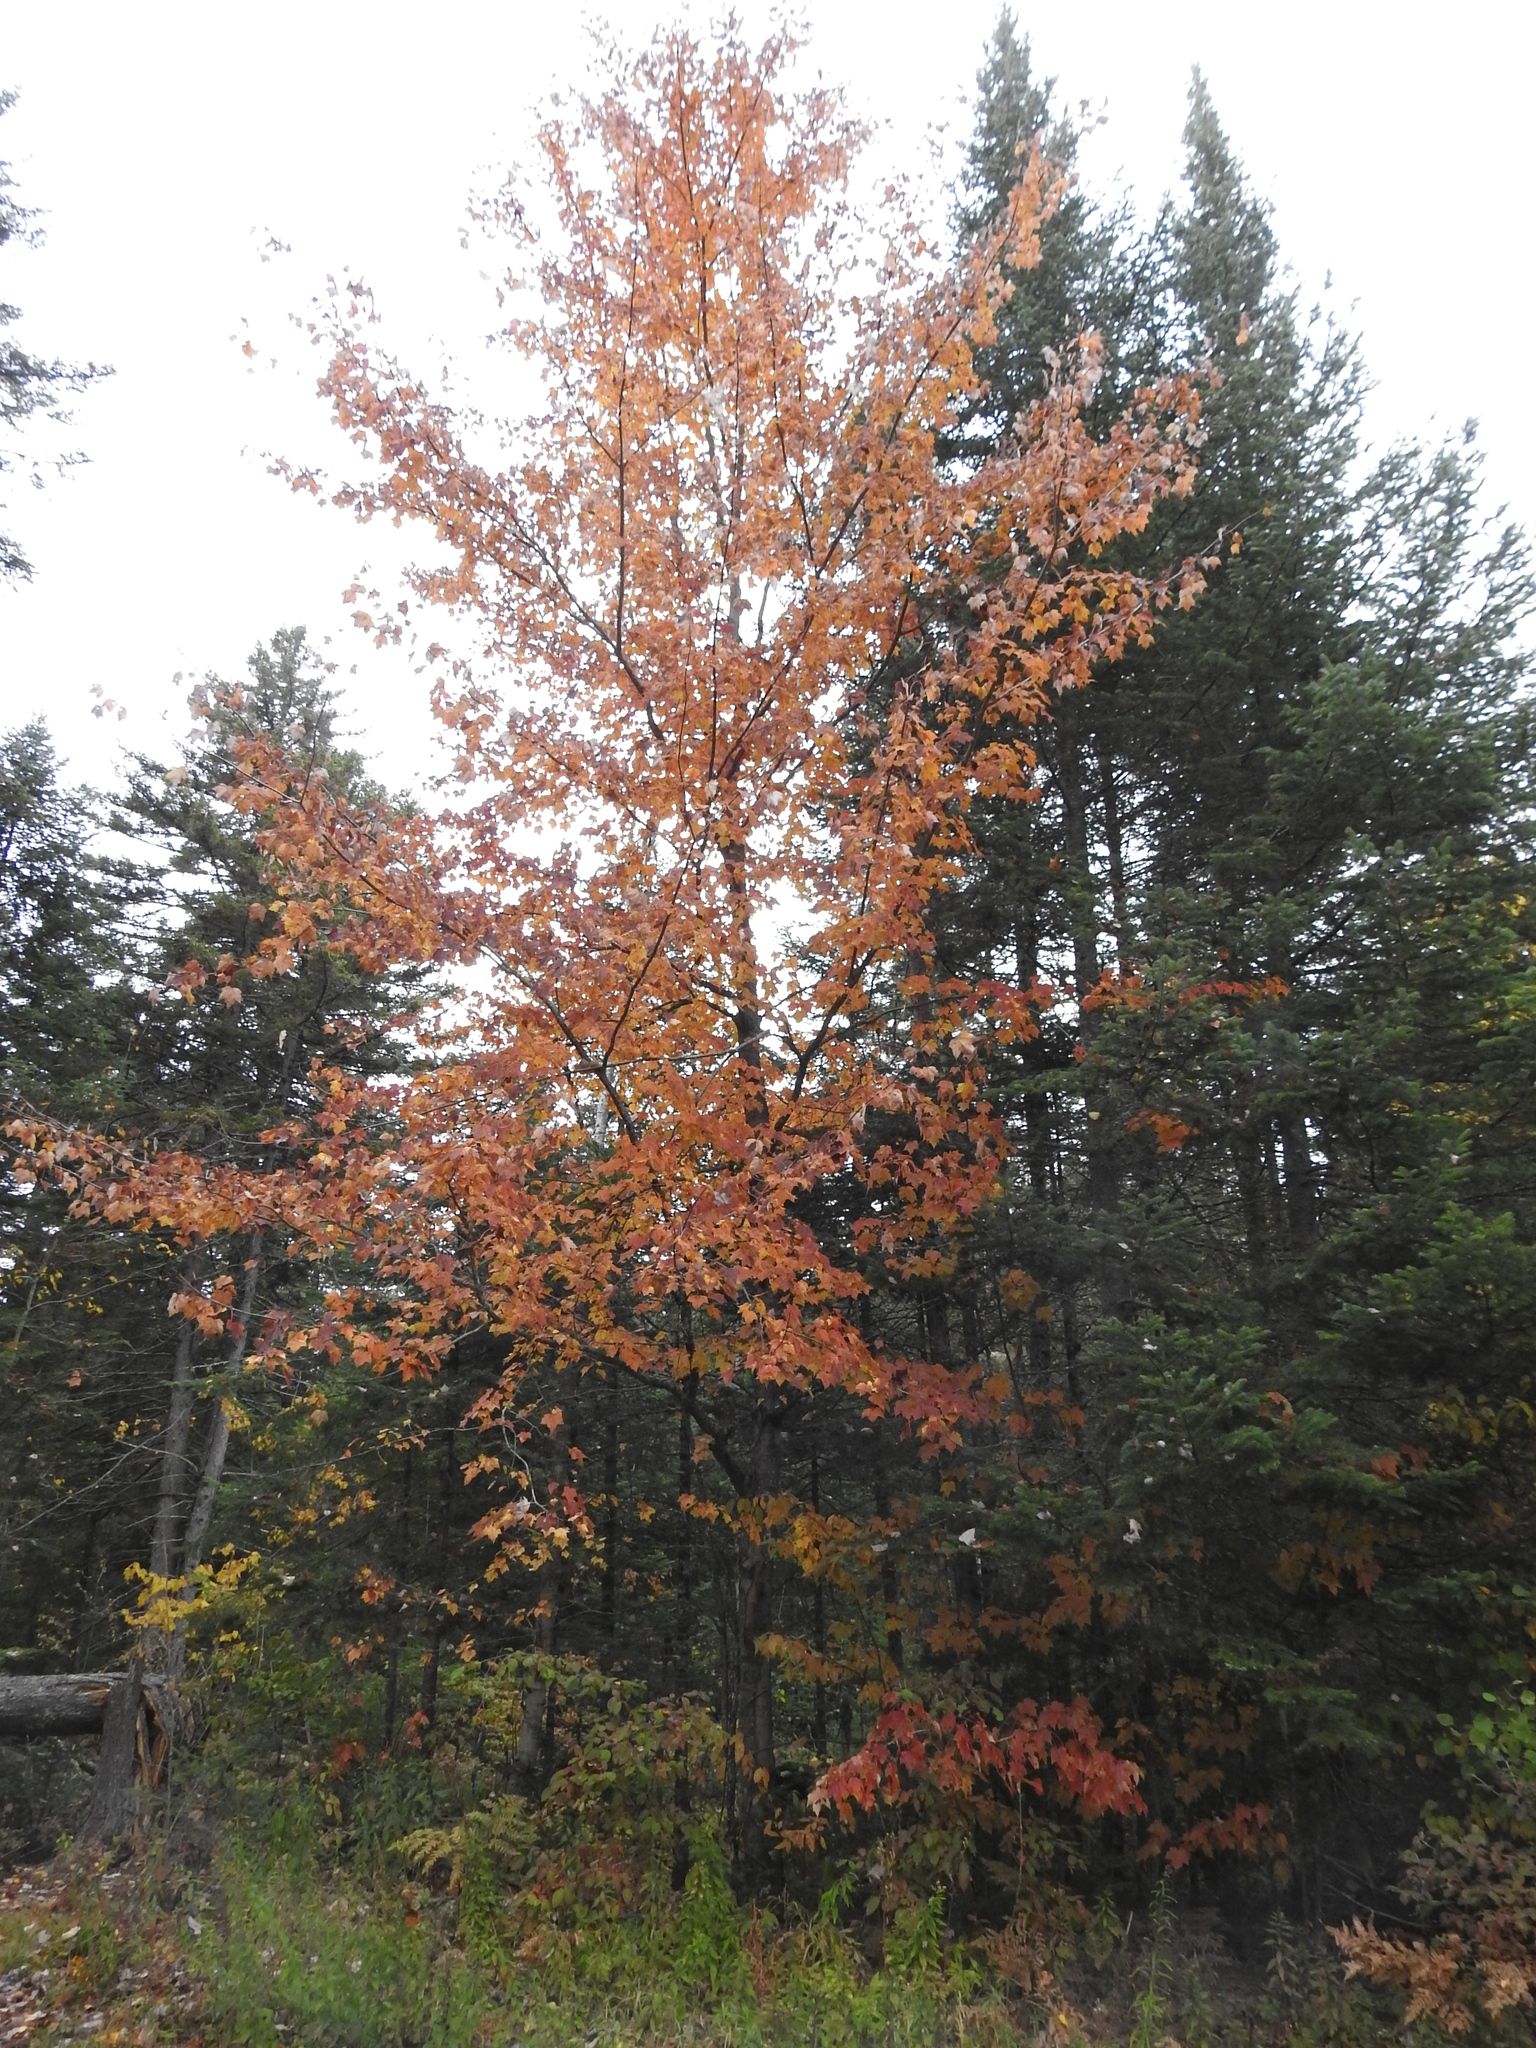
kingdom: Plantae
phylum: Tracheophyta
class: Magnoliopsida
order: Sapindales
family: Sapindaceae
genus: Acer
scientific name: Acer rubrum
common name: Red maple
